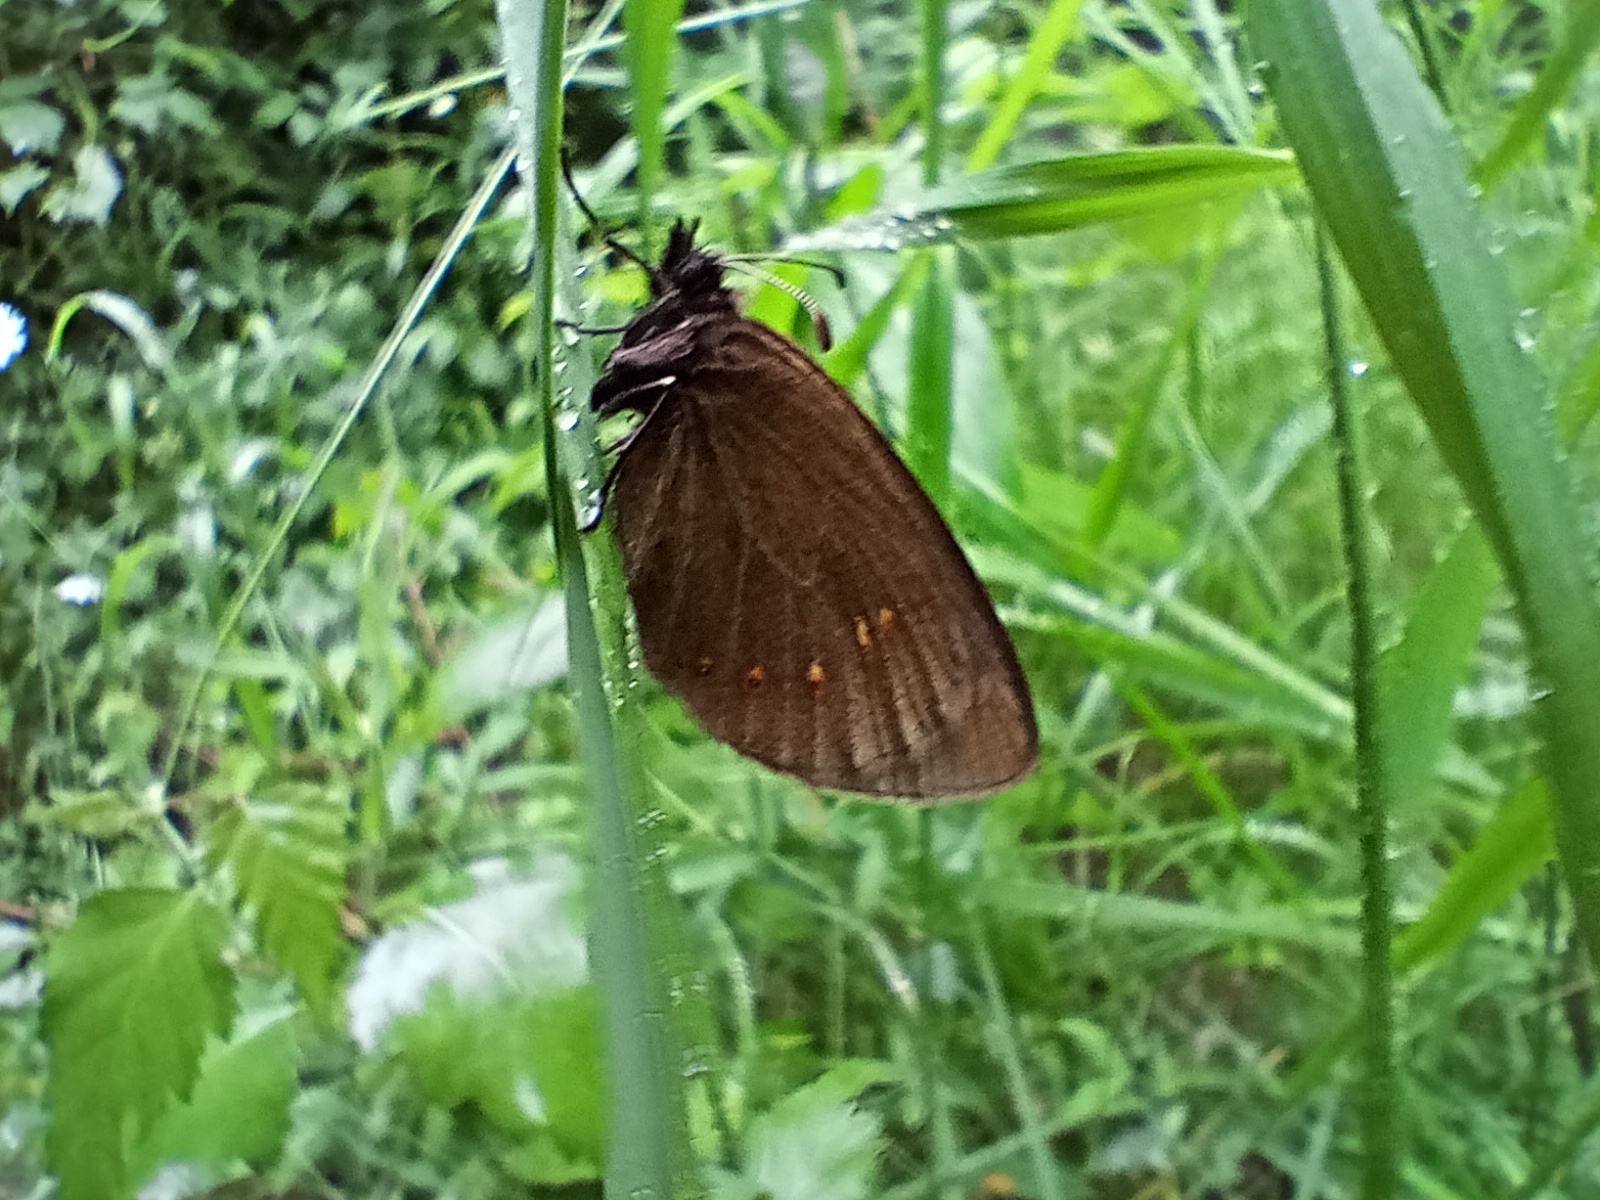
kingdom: Animalia
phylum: Arthropoda
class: Insecta
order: Lepidoptera
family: Nymphalidae
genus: Erebia
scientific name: Erebia alberganus
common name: Almond-eyed ringlet
